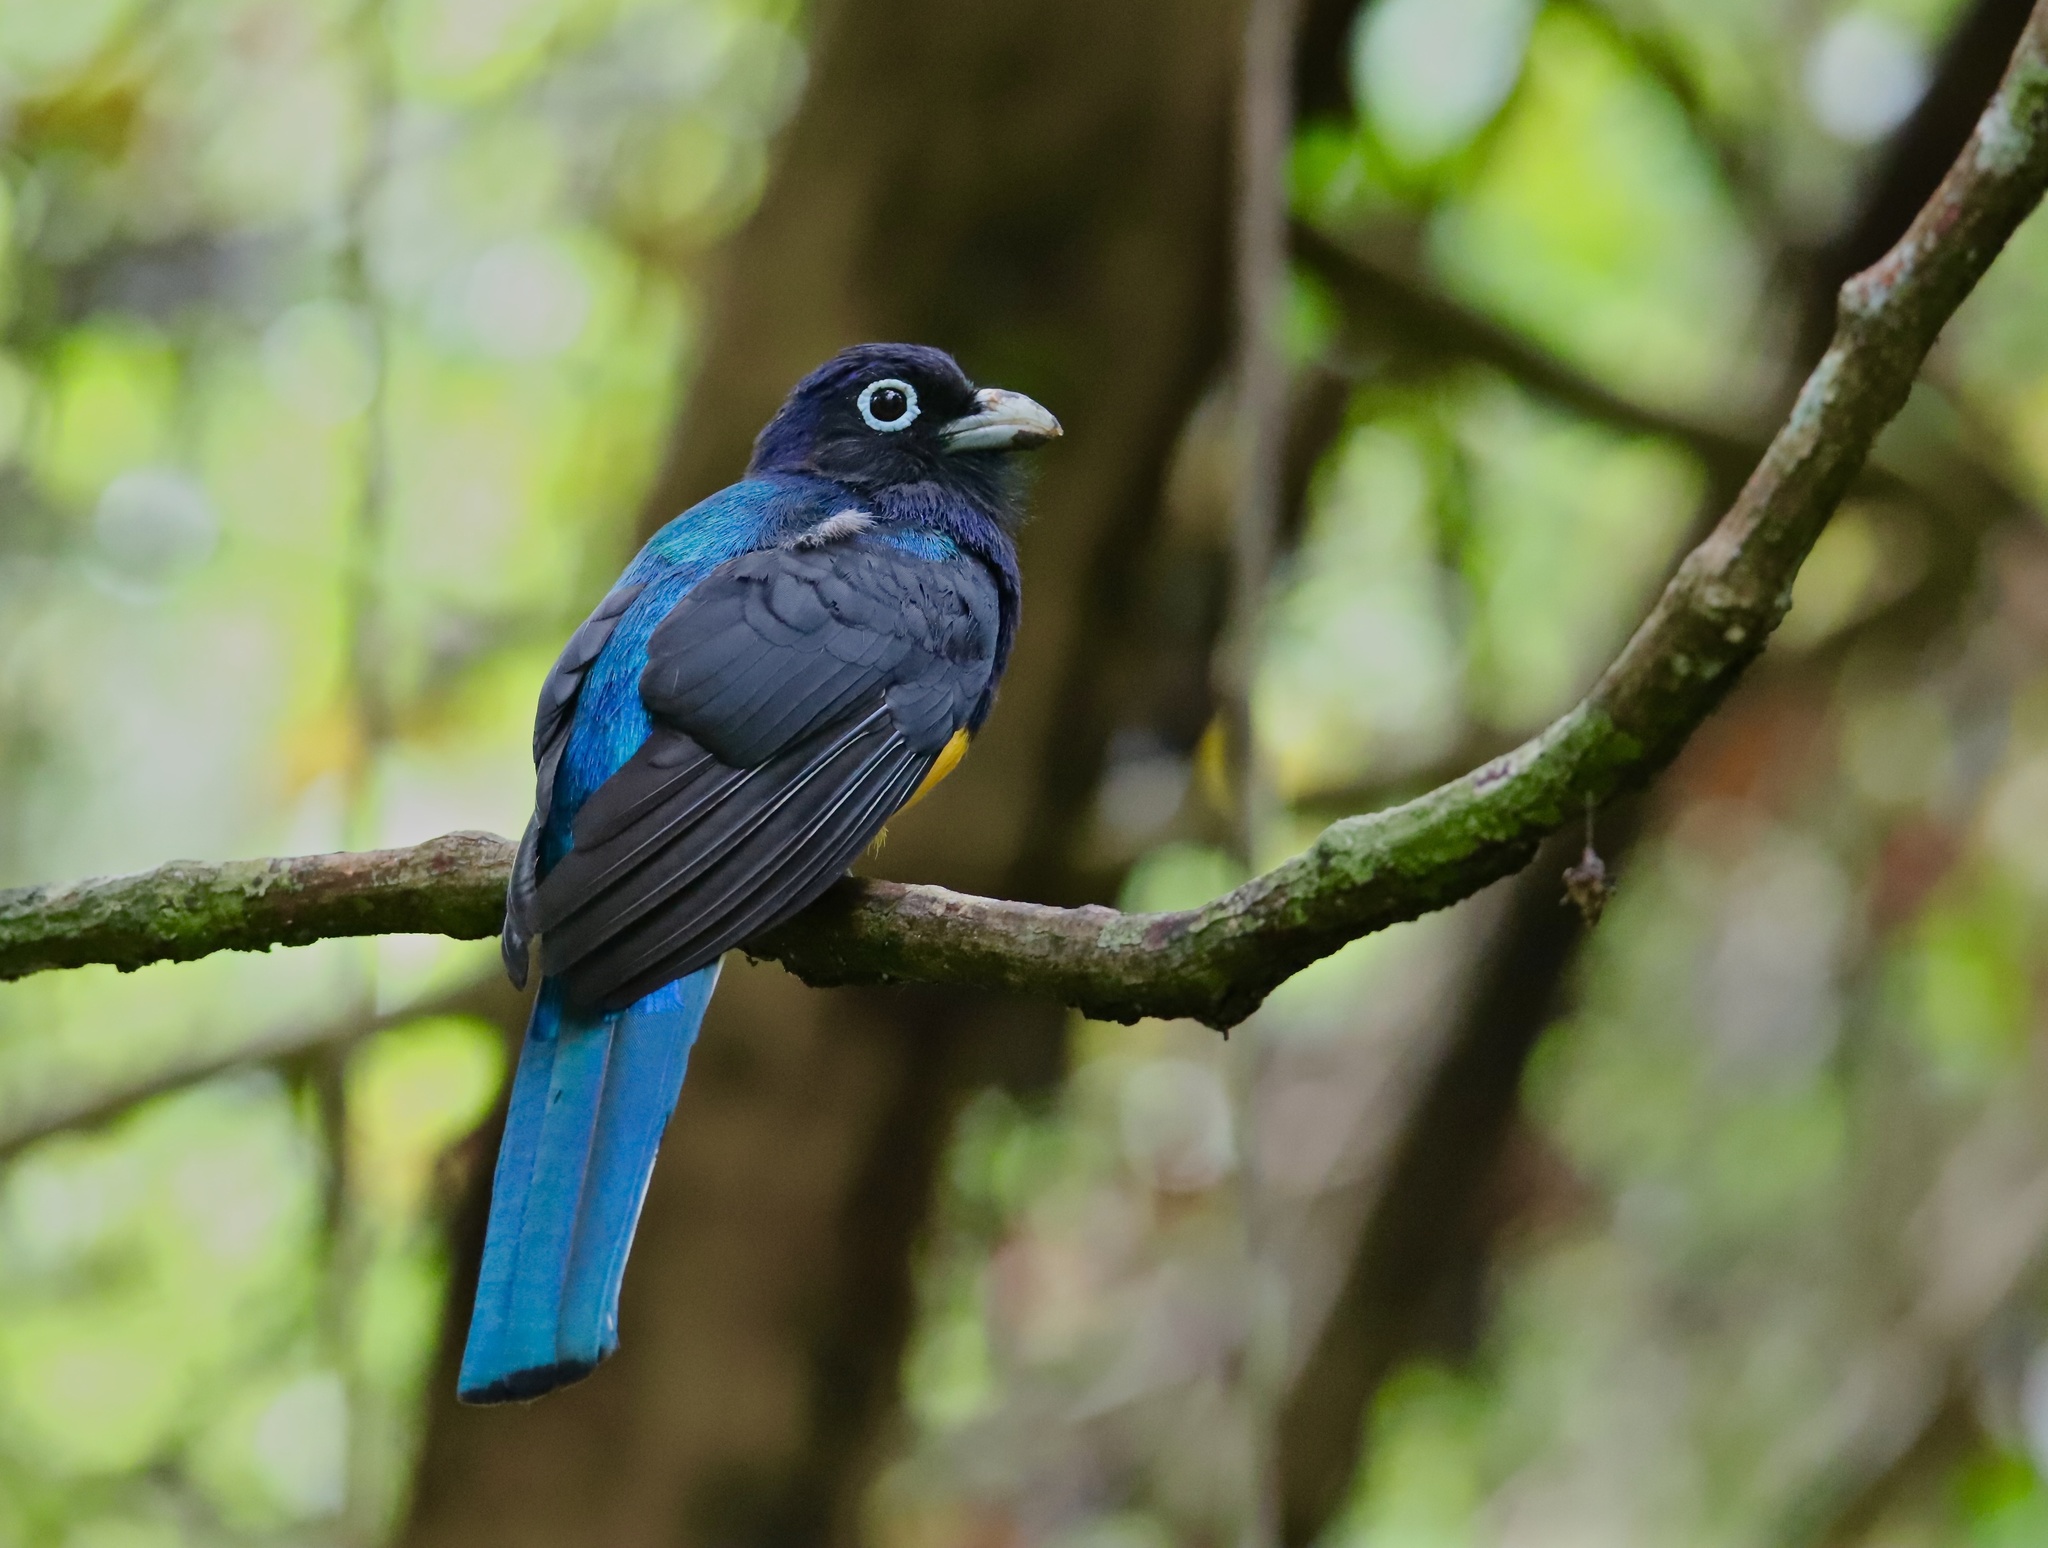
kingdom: Animalia
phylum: Chordata
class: Aves
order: Trogoniformes
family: Trogonidae
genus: Trogon
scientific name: Trogon chionurus
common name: White-tailed trogon
